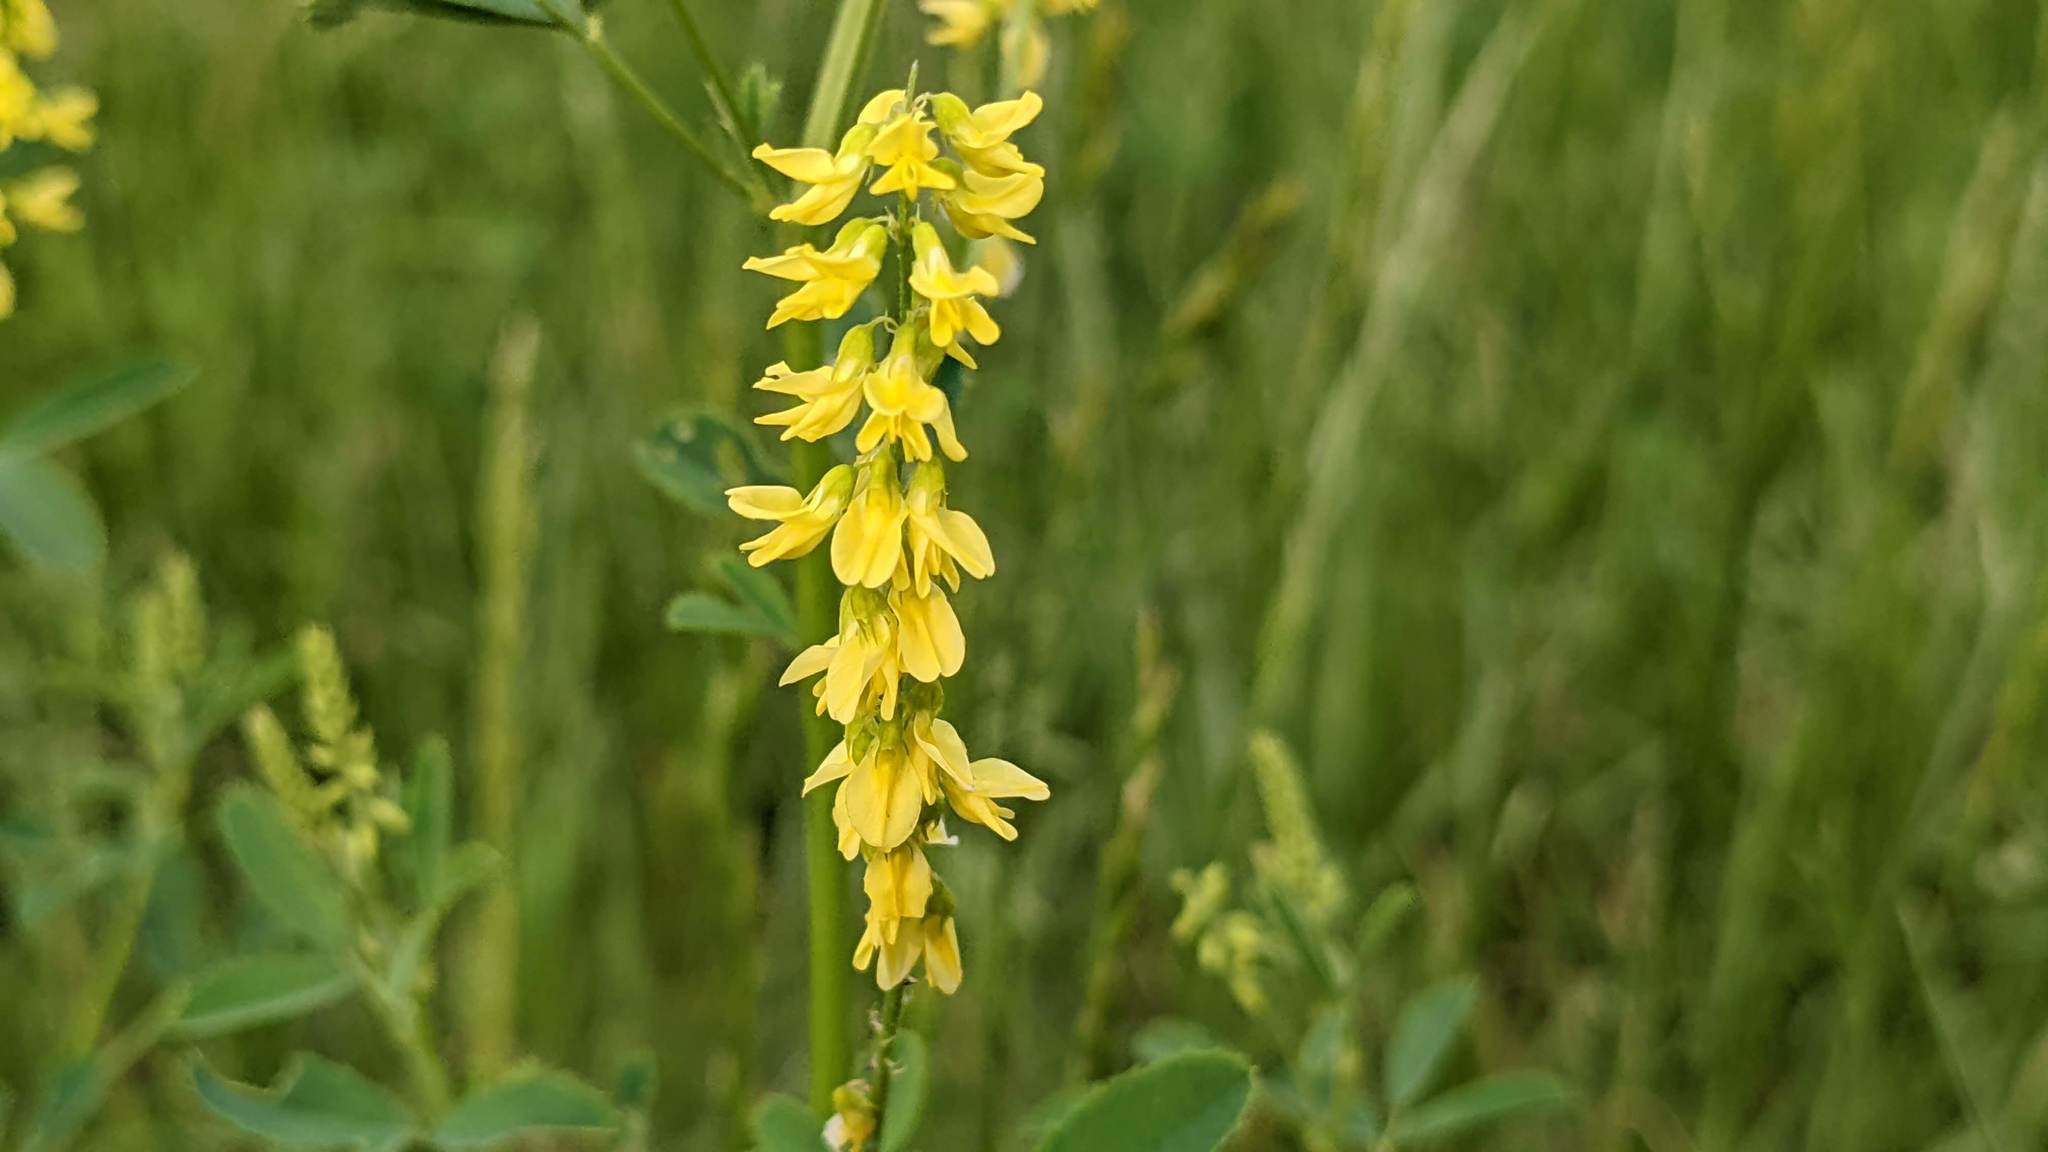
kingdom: Plantae
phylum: Tracheophyta
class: Magnoliopsida
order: Fabales
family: Fabaceae
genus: Melilotus
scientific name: Melilotus officinalis
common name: Sweetclover
